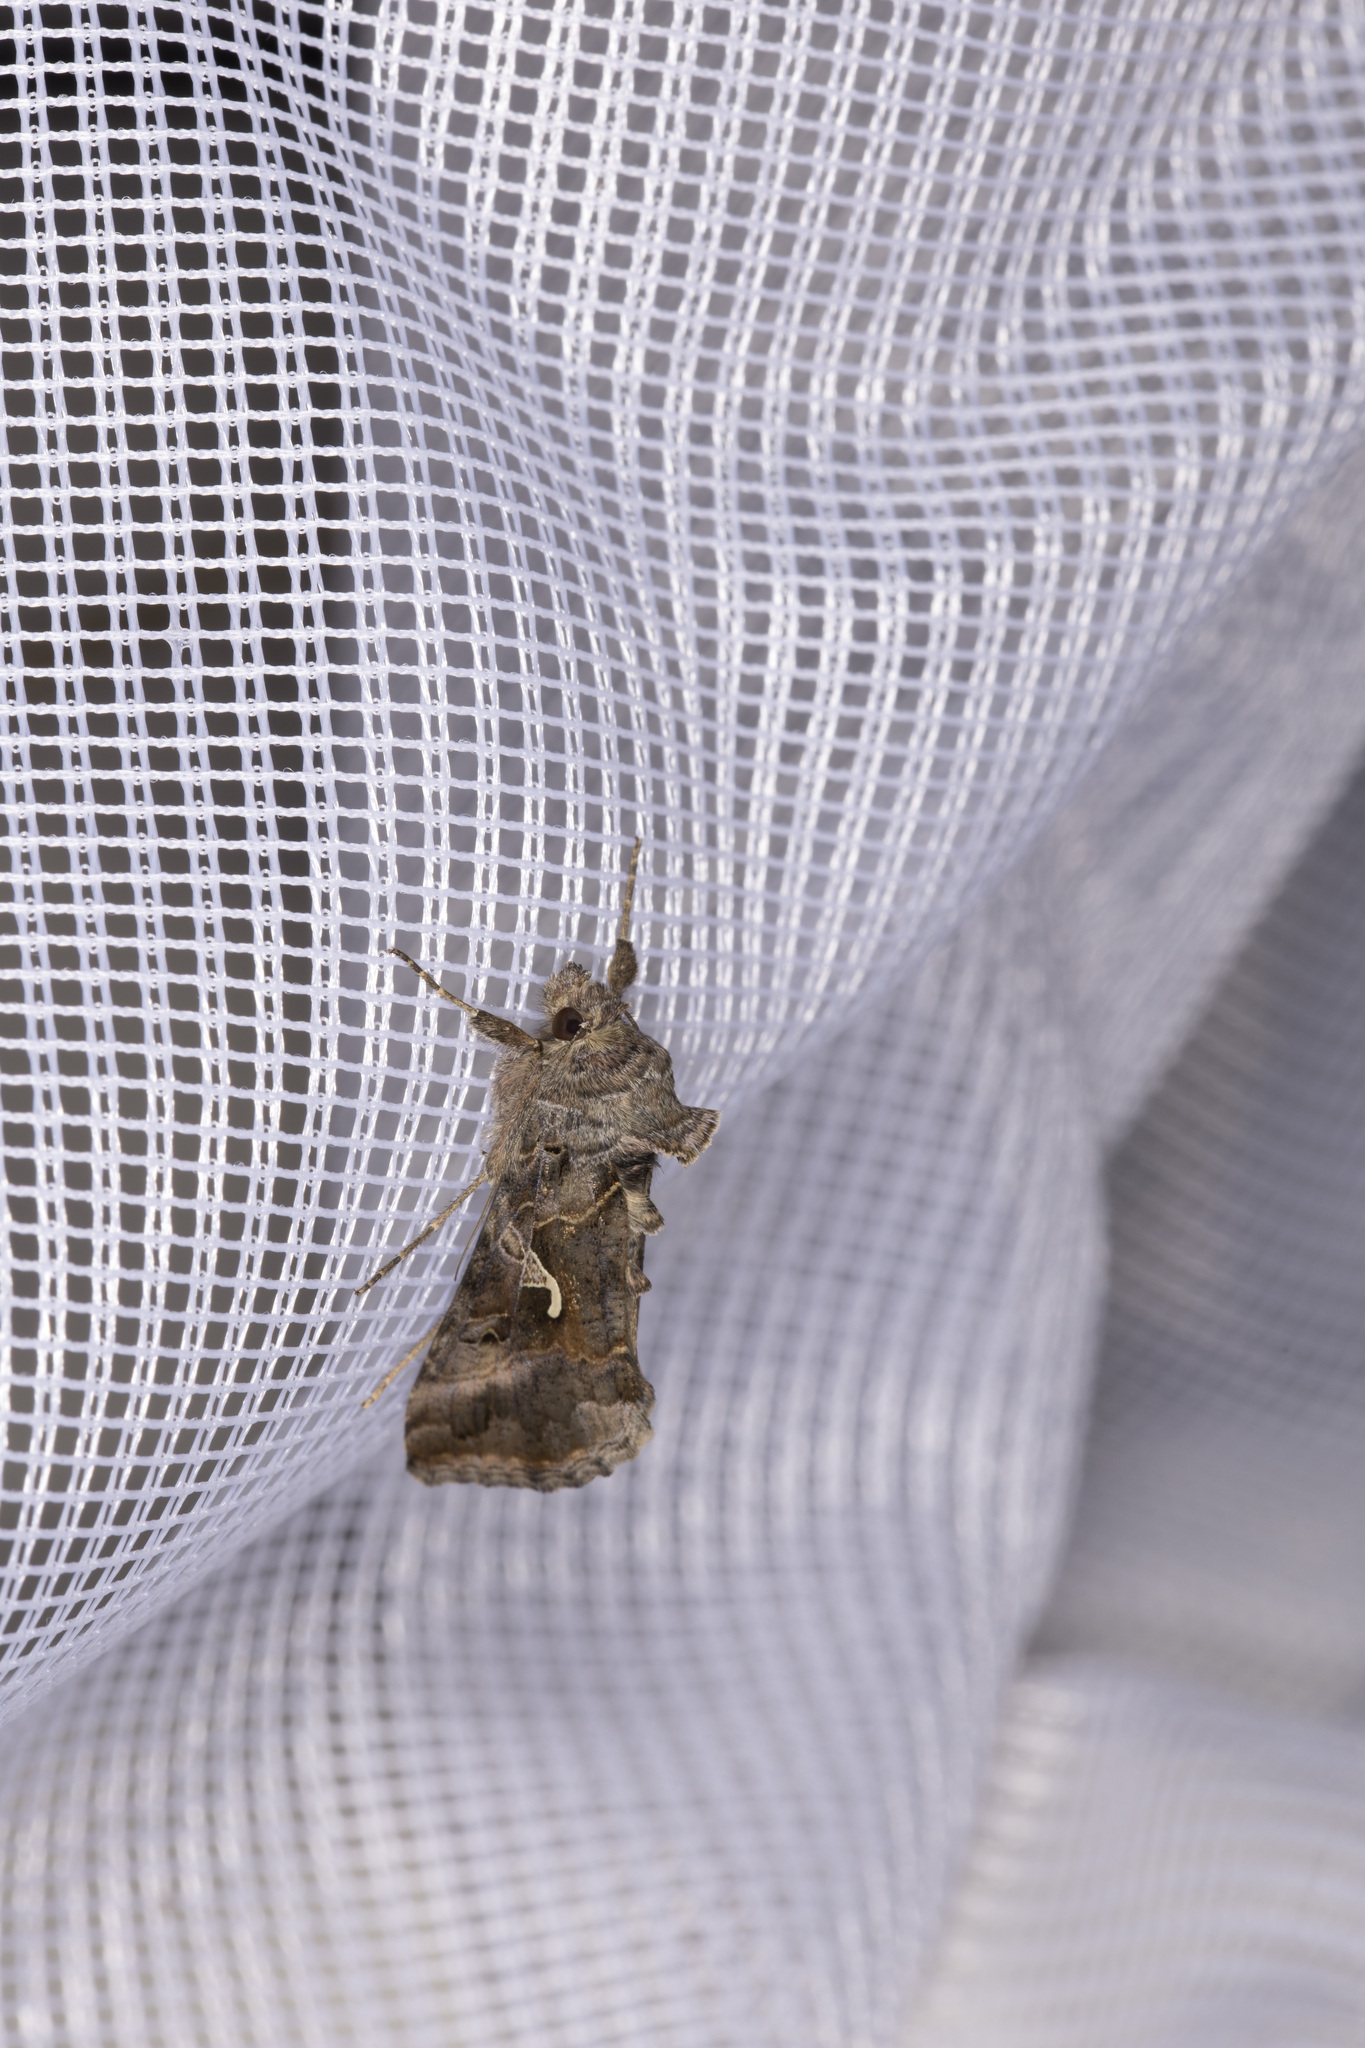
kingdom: Animalia
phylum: Arthropoda
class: Insecta
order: Lepidoptera
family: Noctuidae
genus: Autographa
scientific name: Autographa gamma
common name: Silver y
